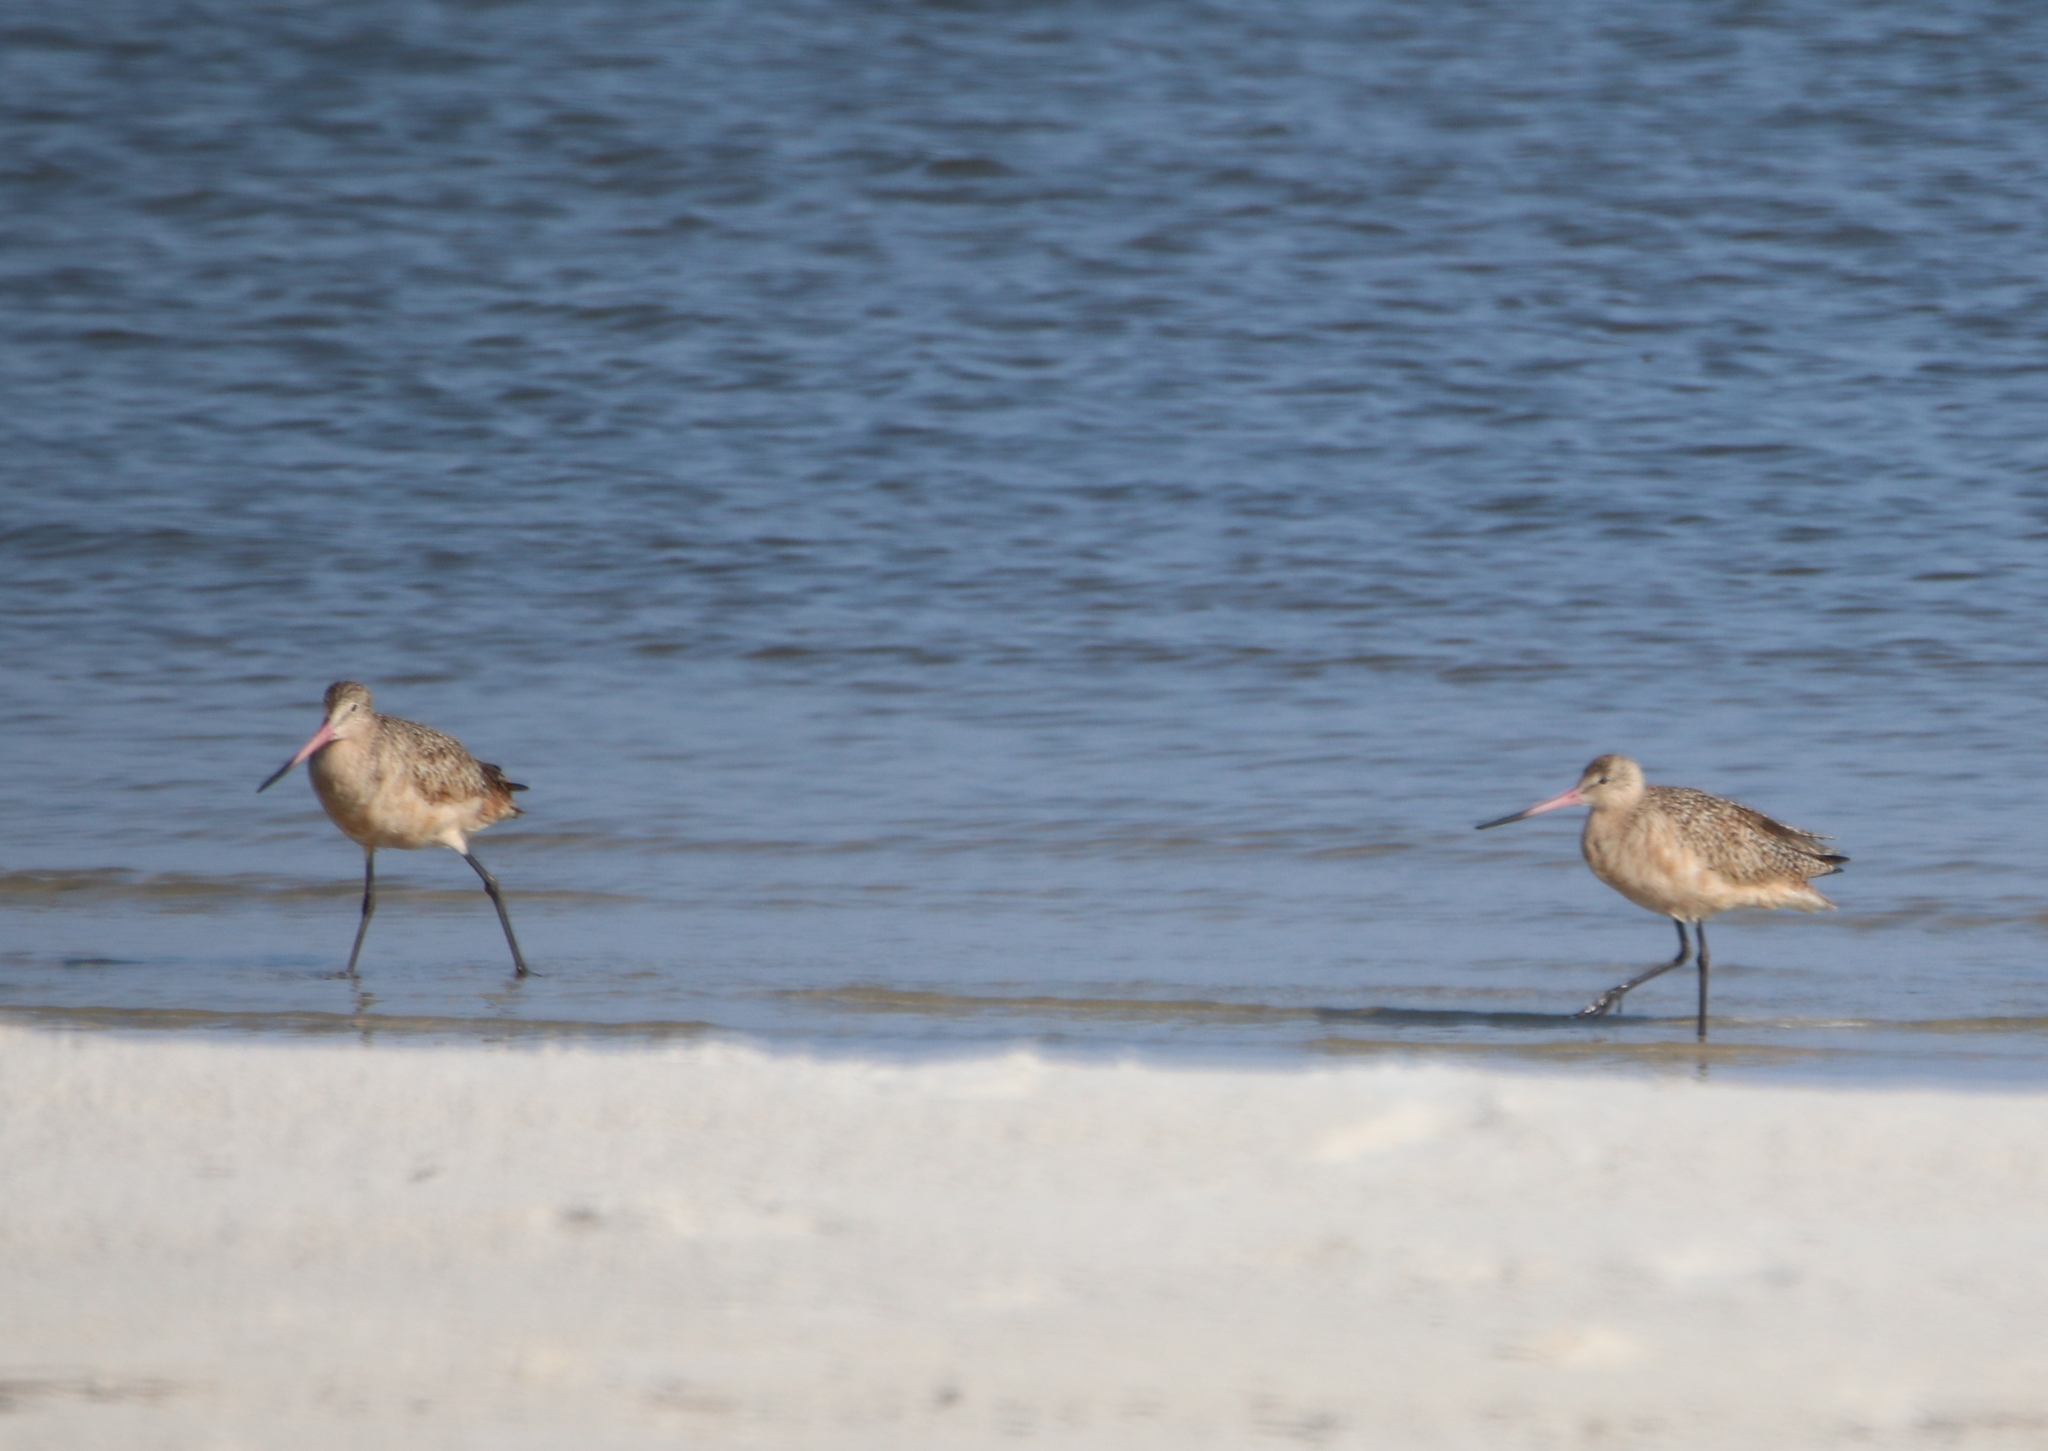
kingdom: Animalia
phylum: Chordata
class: Aves
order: Charadriiformes
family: Scolopacidae
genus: Limosa
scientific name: Limosa fedoa
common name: Marbled godwit
